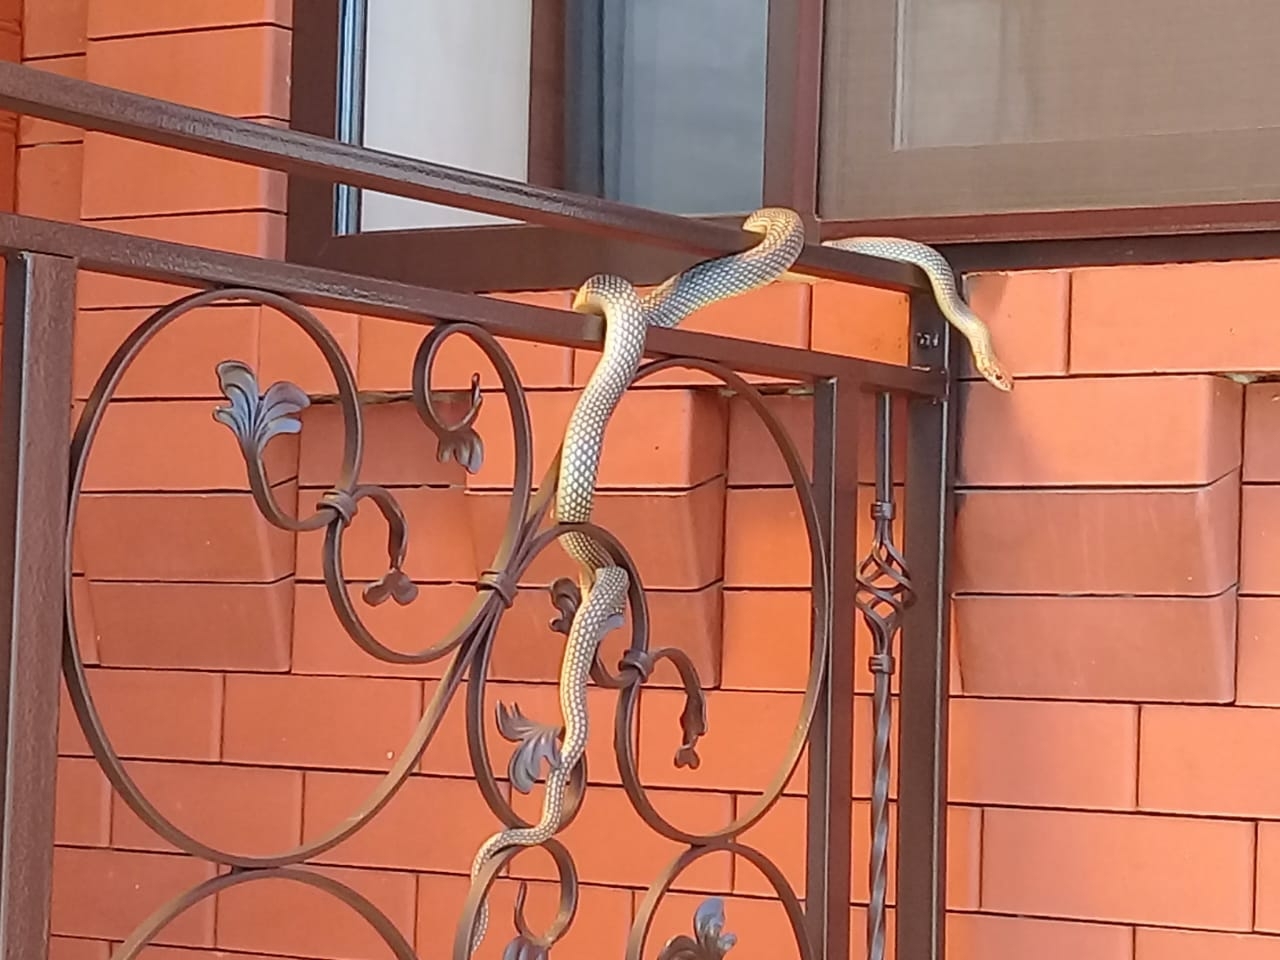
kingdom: Animalia
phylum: Chordata
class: Squamata
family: Colubridae
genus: Dolichophis
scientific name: Dolichophis caspius
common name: Large whip snake
